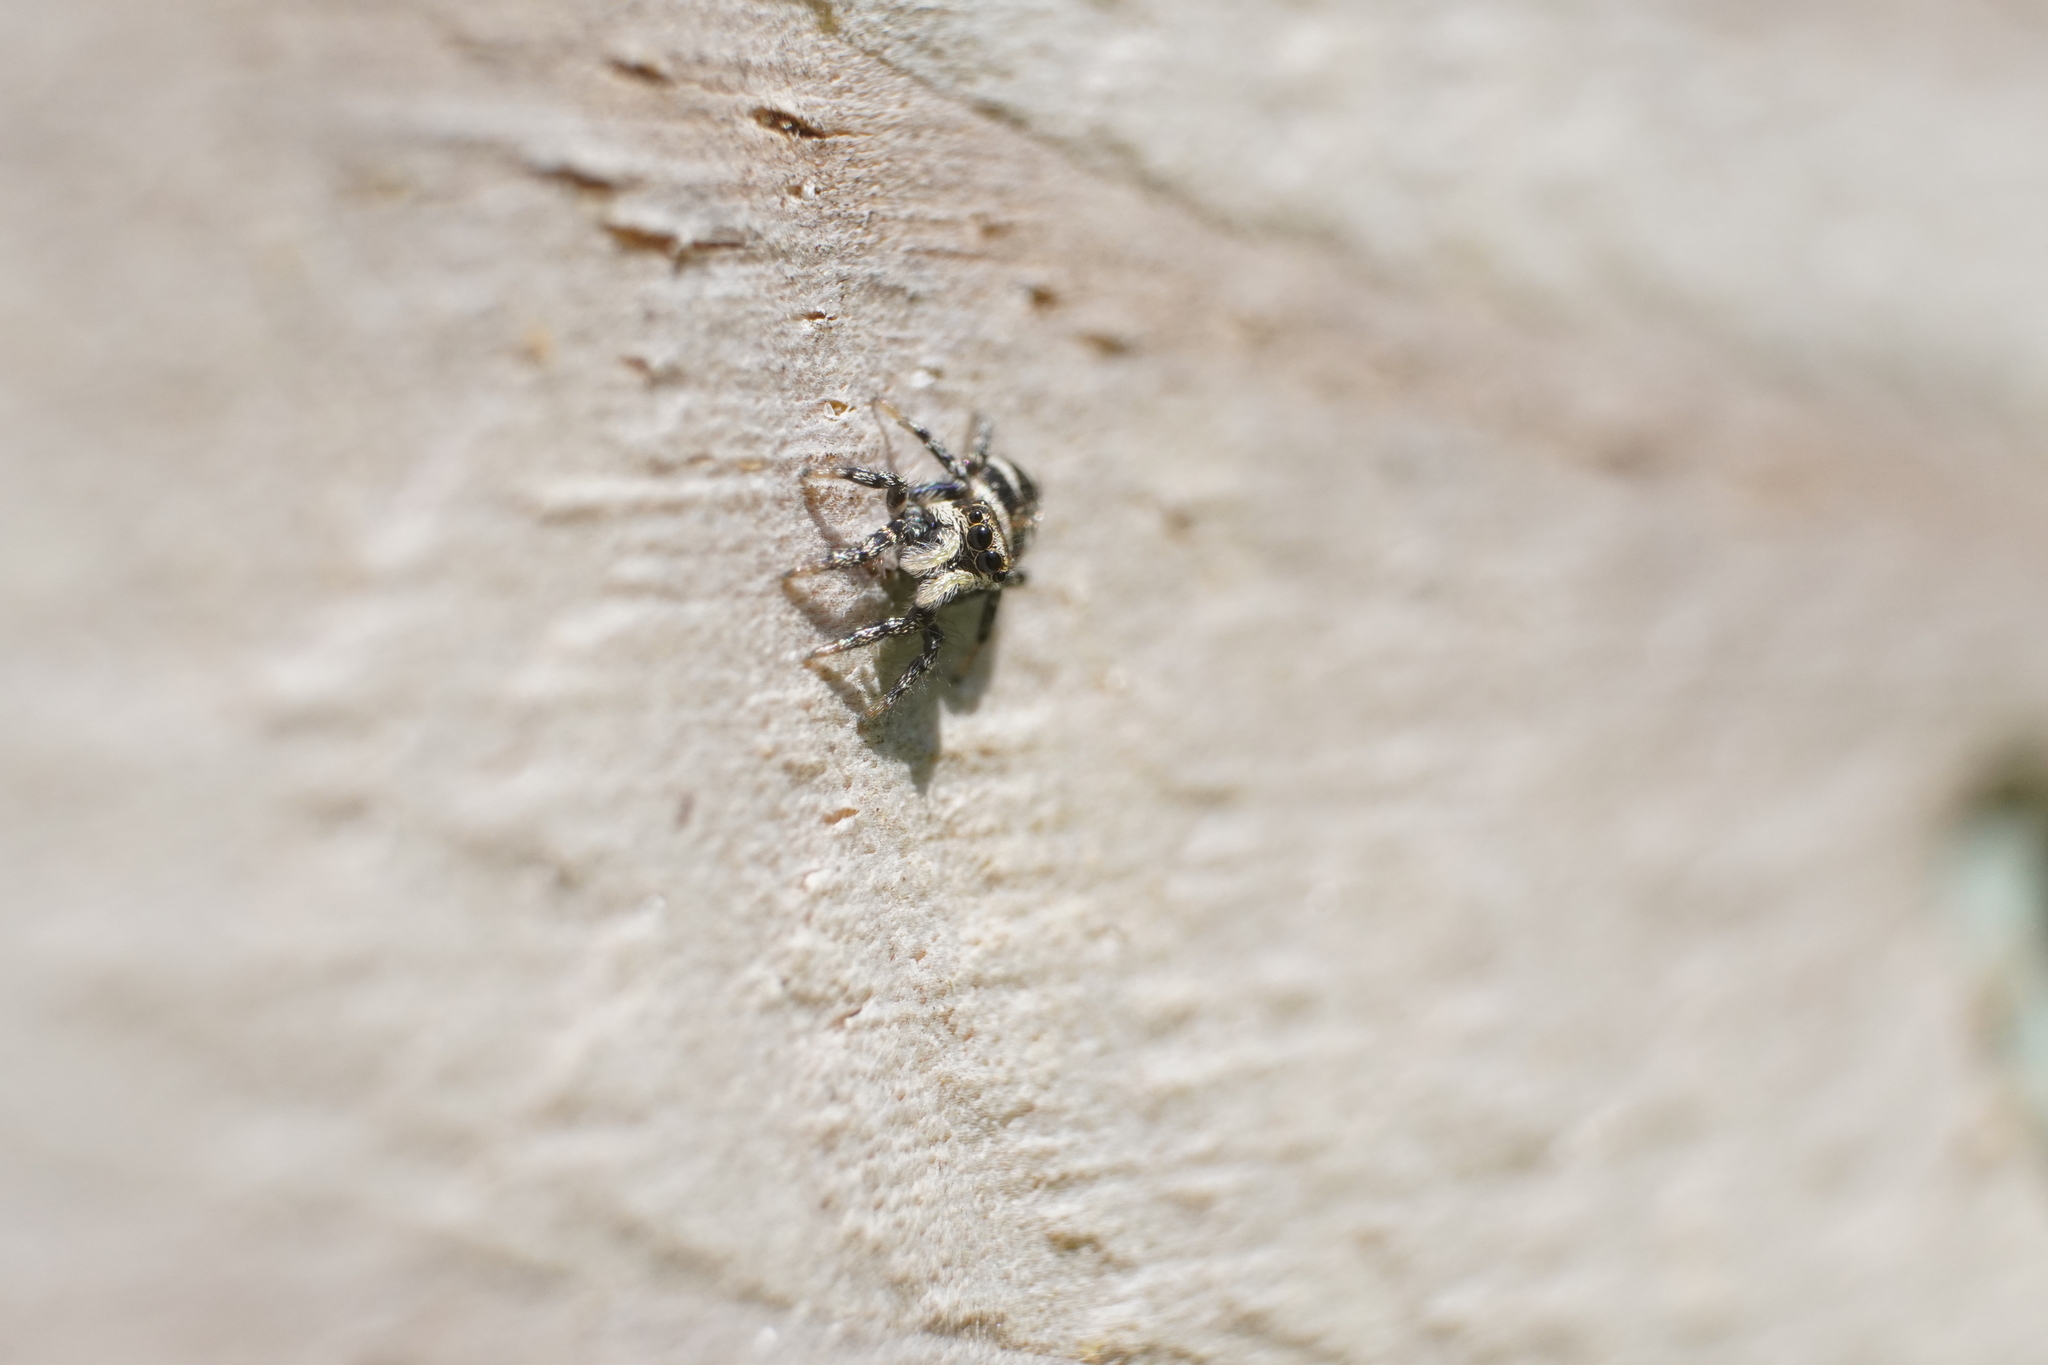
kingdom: Animalia
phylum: Arthropoda
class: Arachnida
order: Araneae
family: Salticidae
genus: Salticus
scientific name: Salticus scenicus
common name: Zebra jumper
